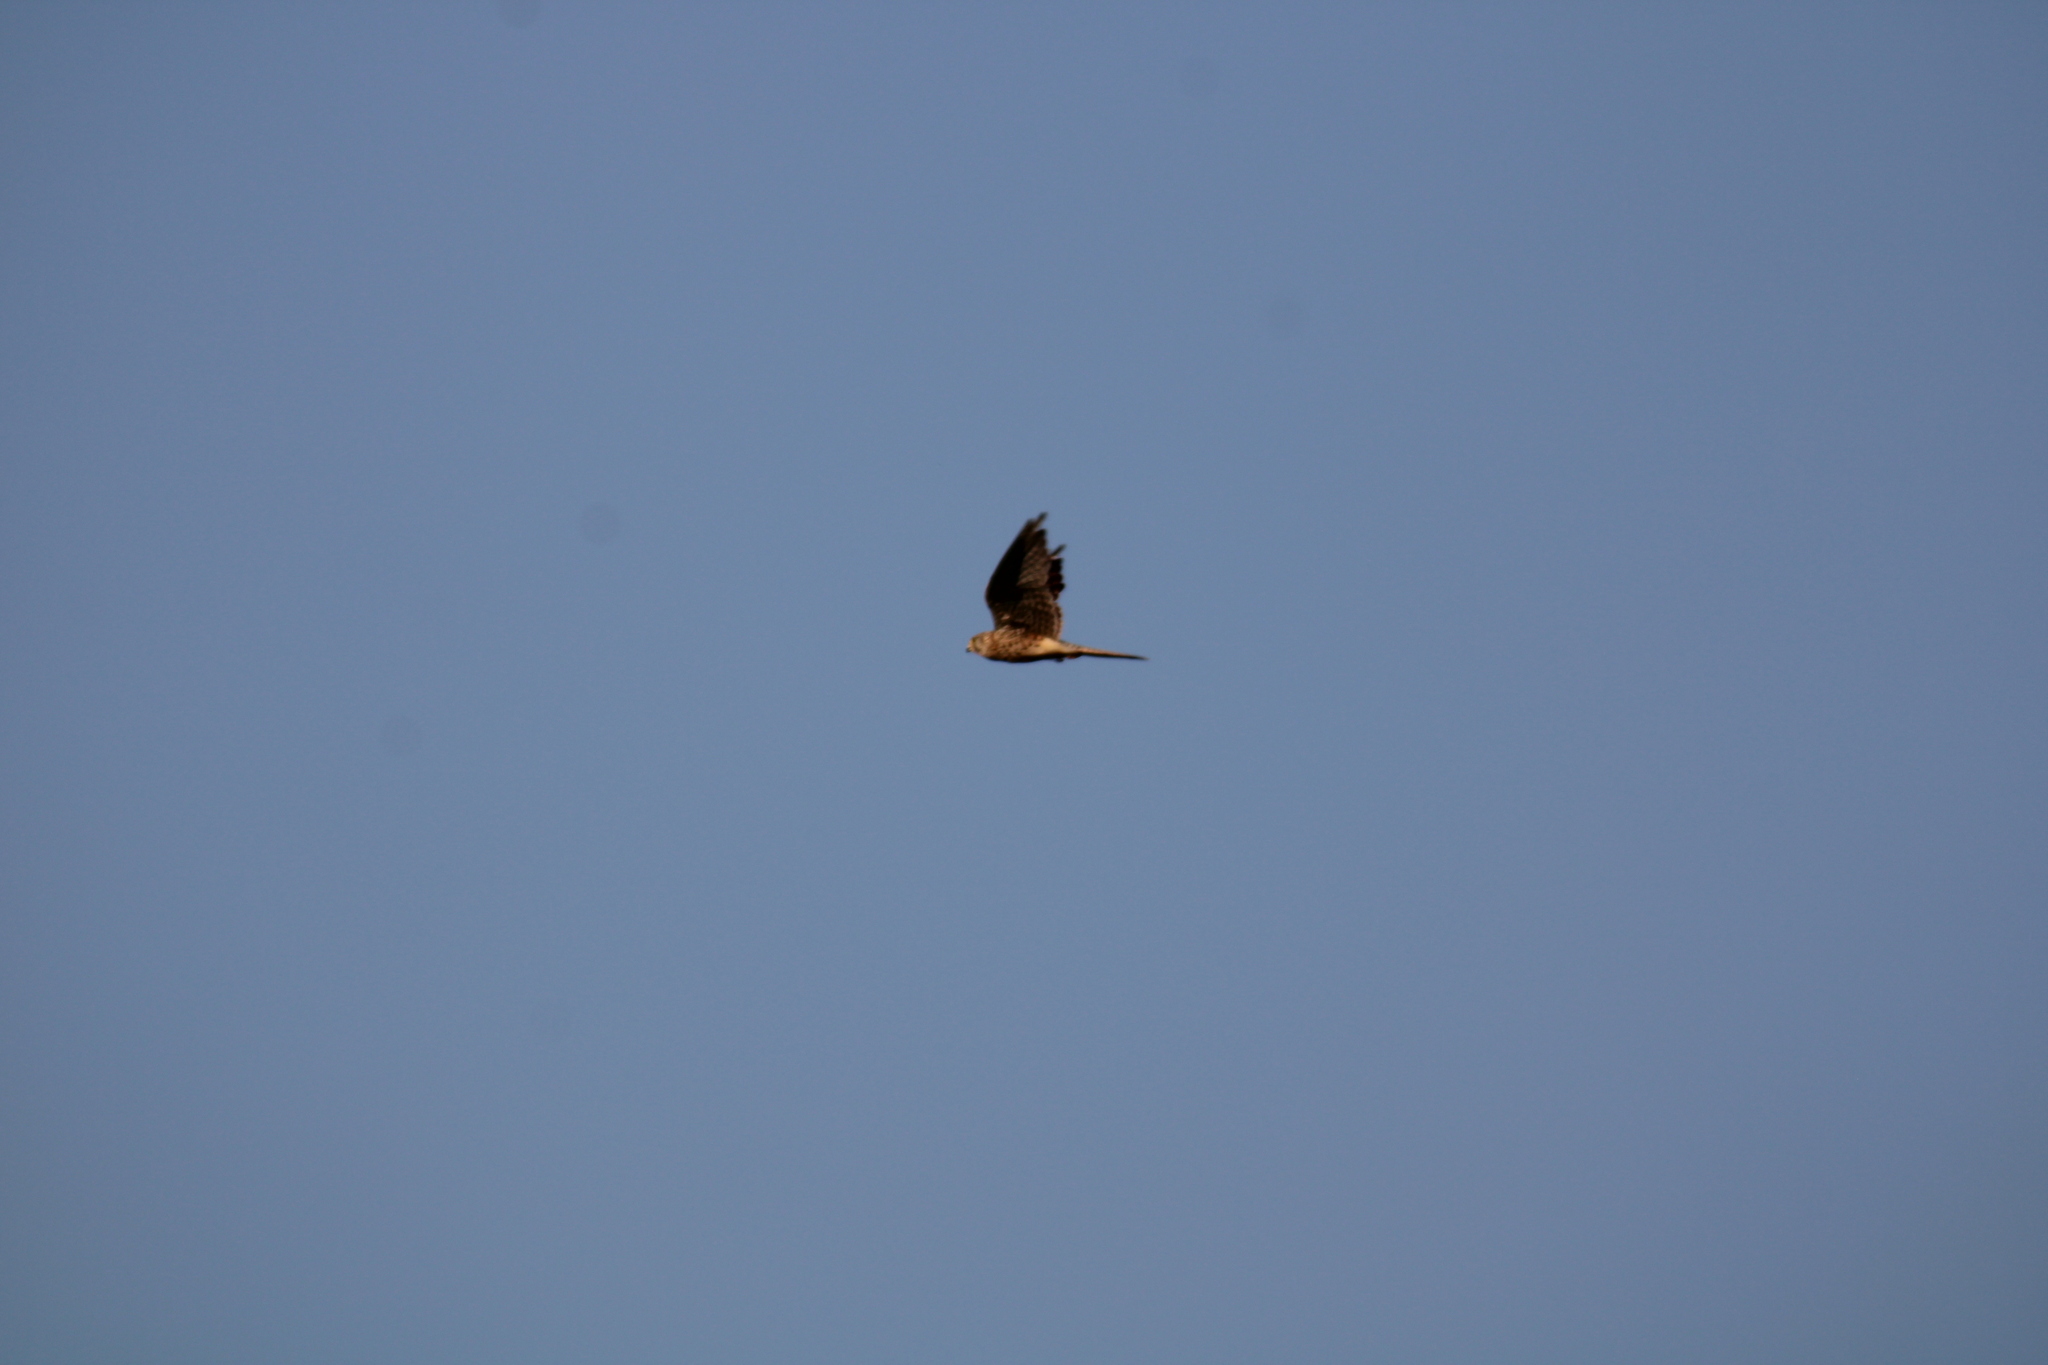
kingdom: Animalia
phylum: Chordata
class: Aves
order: Falconiformes
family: Falconidae
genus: Falco
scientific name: Falco tinnunculus
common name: Common kestrel
